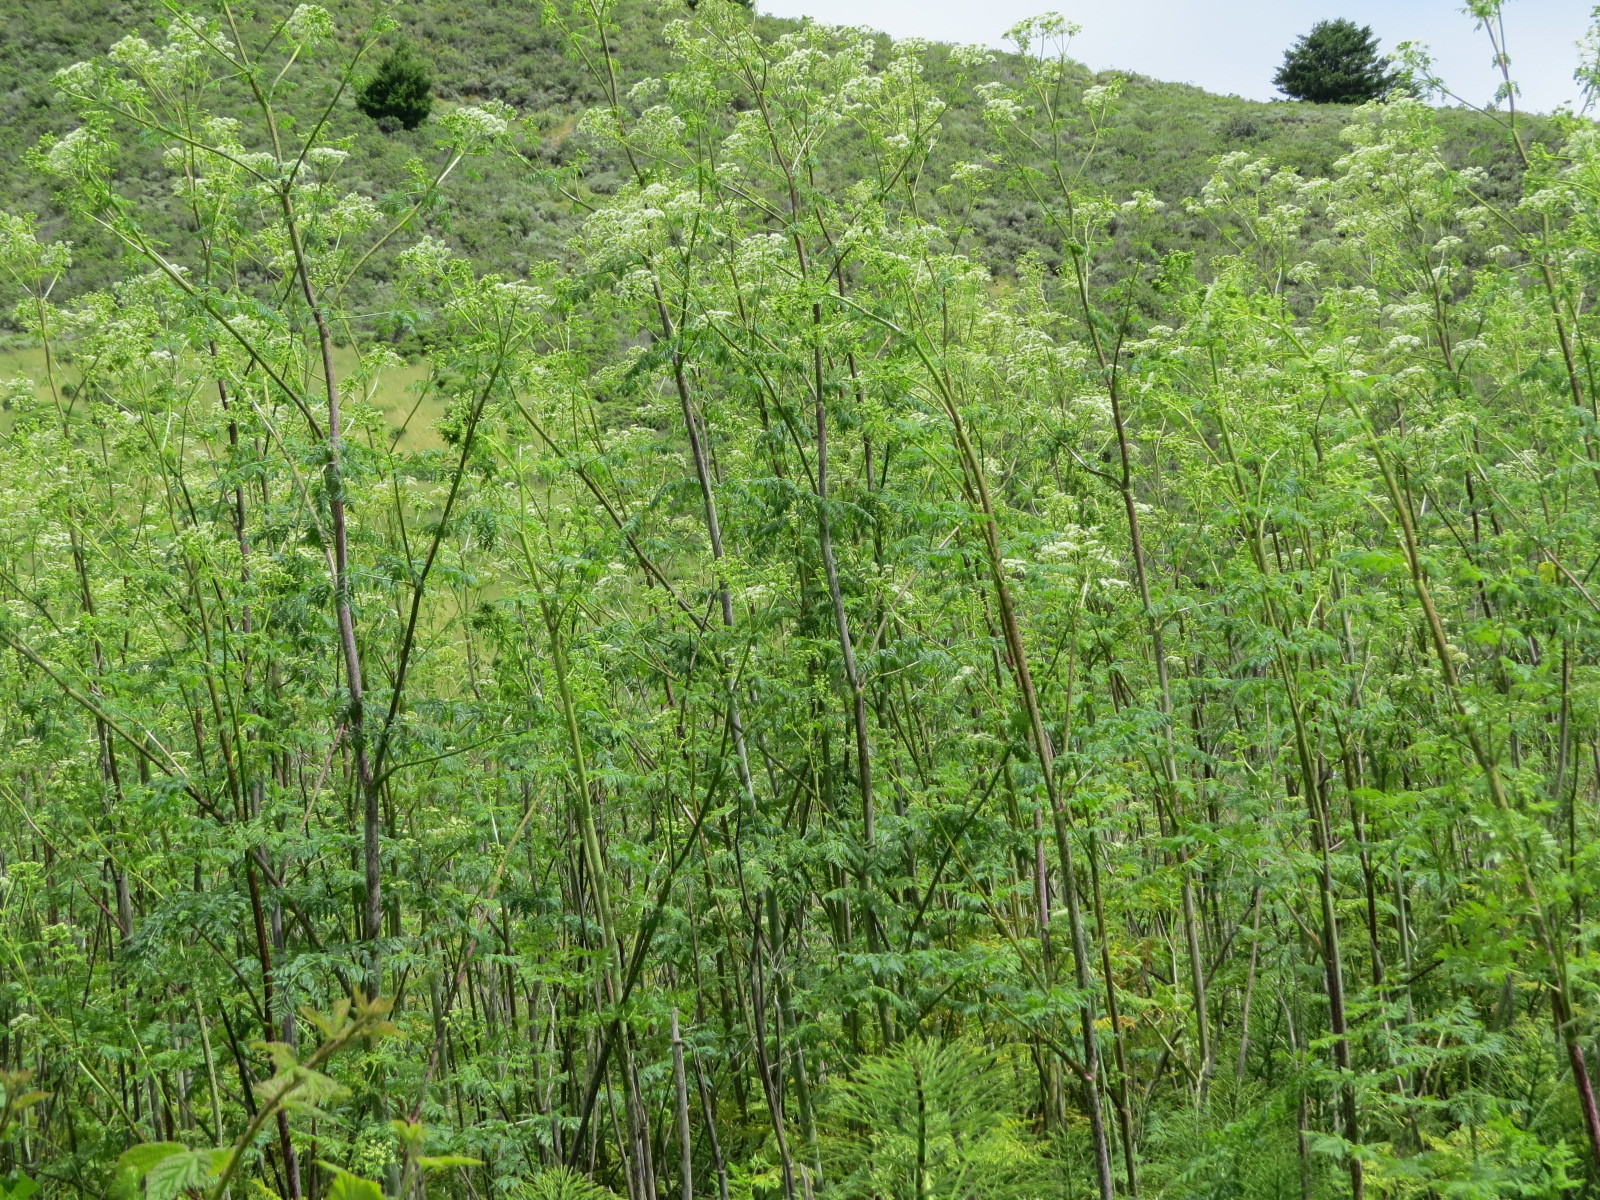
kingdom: Plantae
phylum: Tracheophyta
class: Magnoliopsida
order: Apiales
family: Apiaceae
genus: Conium
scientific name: Conium maculatum
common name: Hemlock
